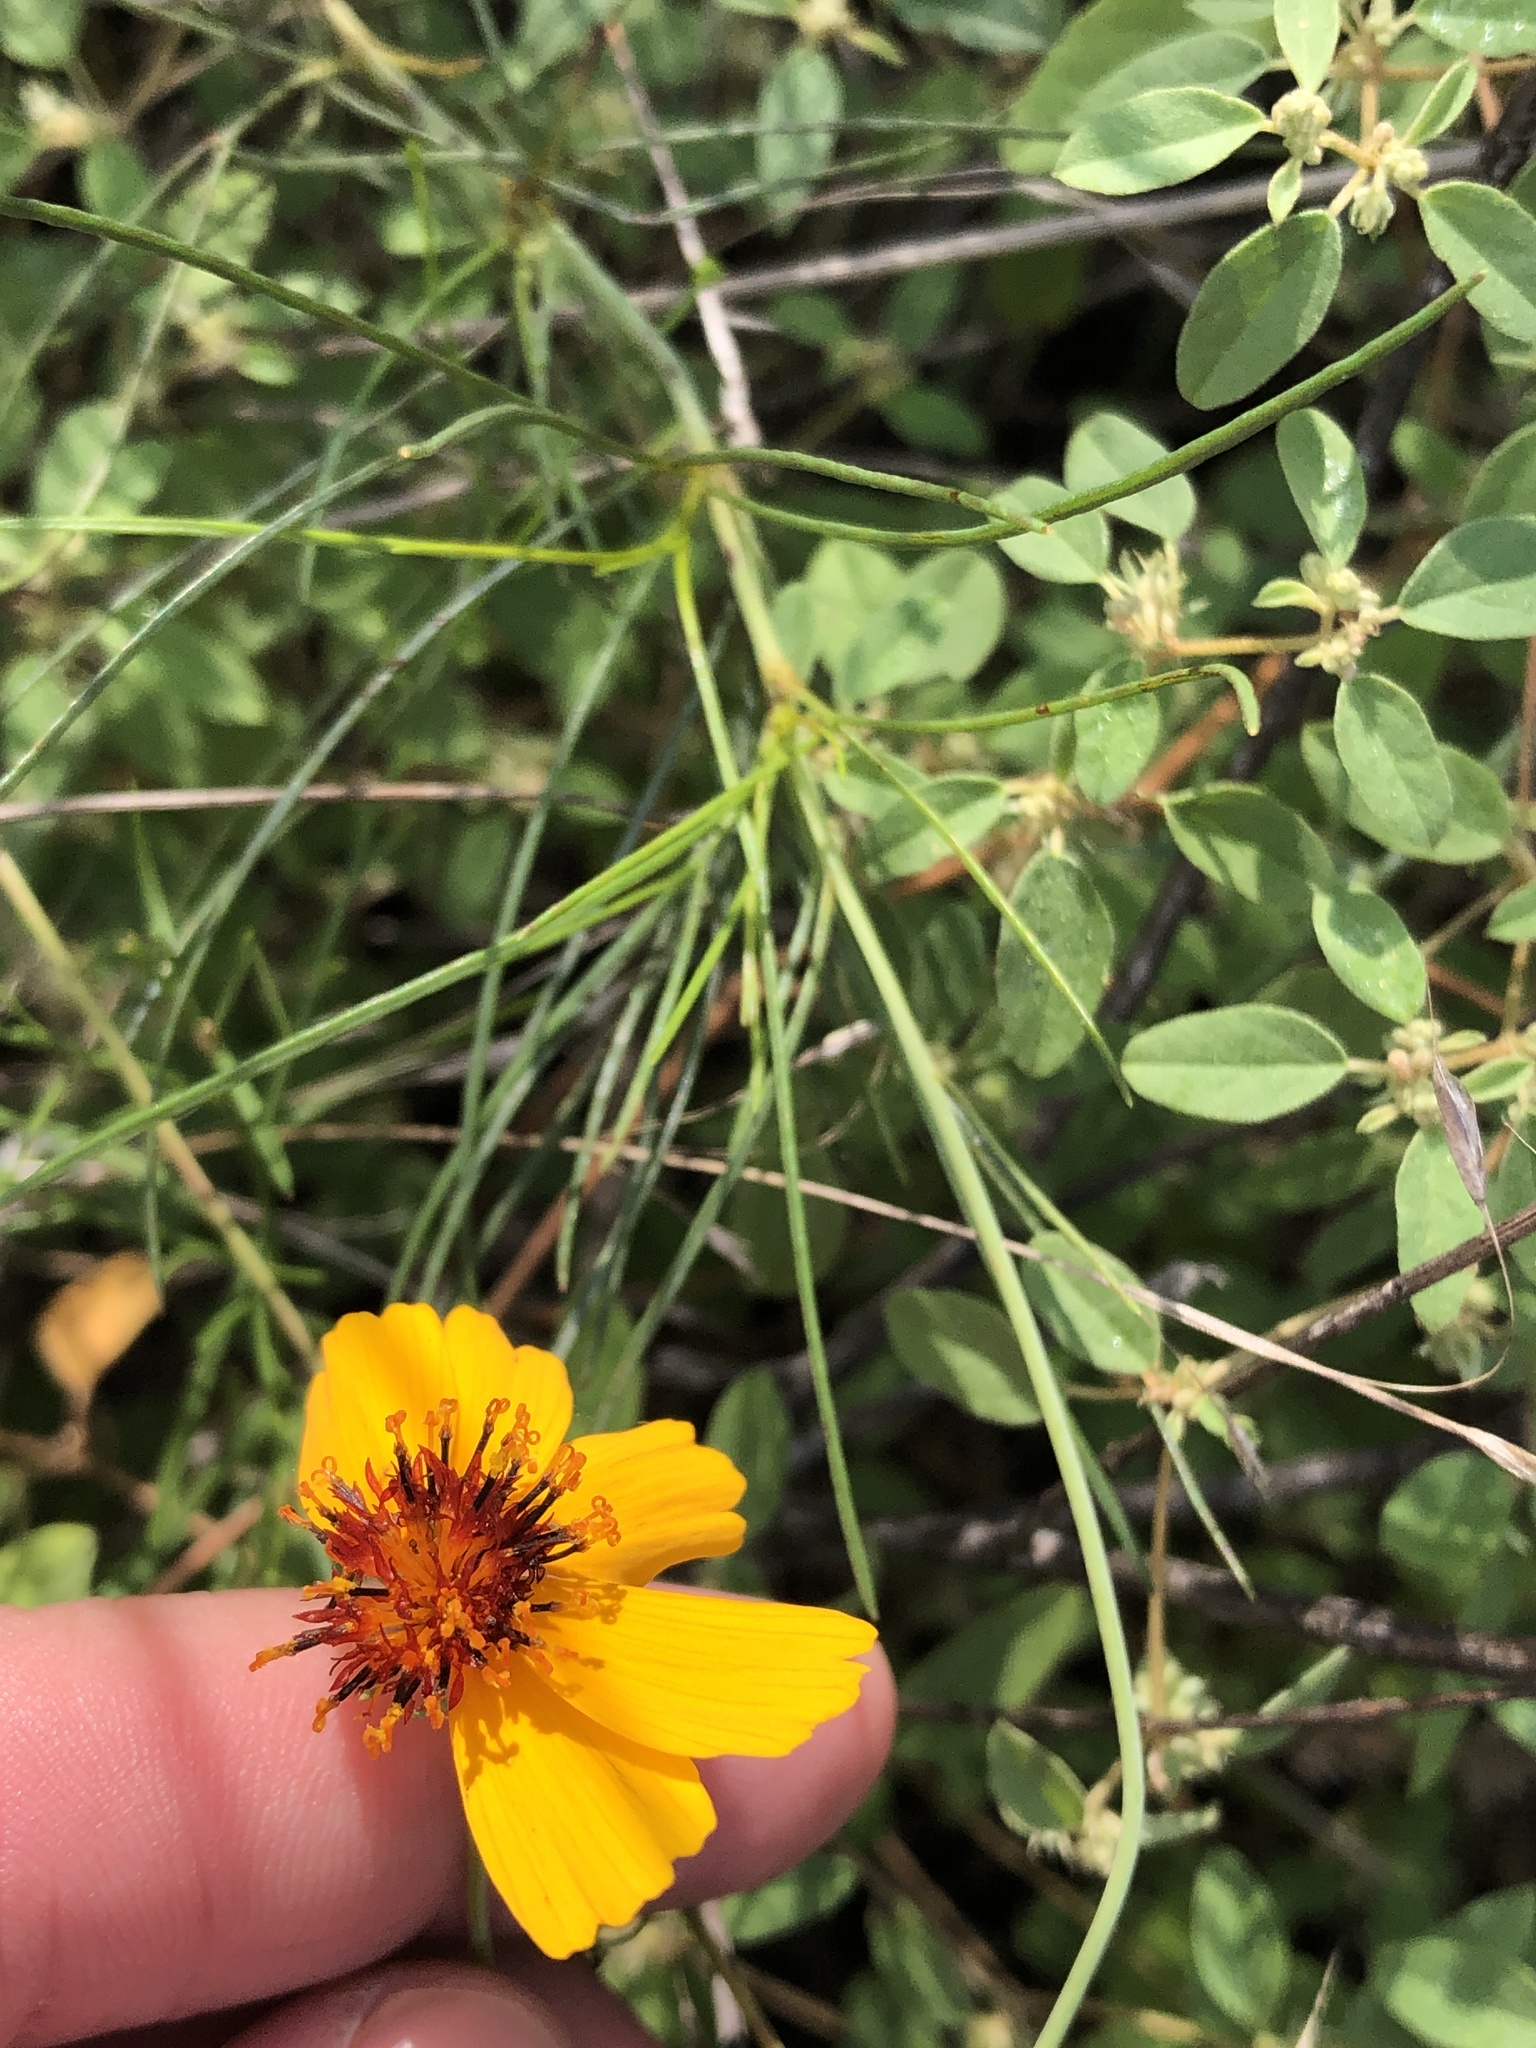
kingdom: Plantae
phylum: Tracheophyta
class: Magnoliopsida
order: Asterales
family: Asteraceae
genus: Thelesperma
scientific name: Thelesperma filifolium
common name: Stiff greenthread
